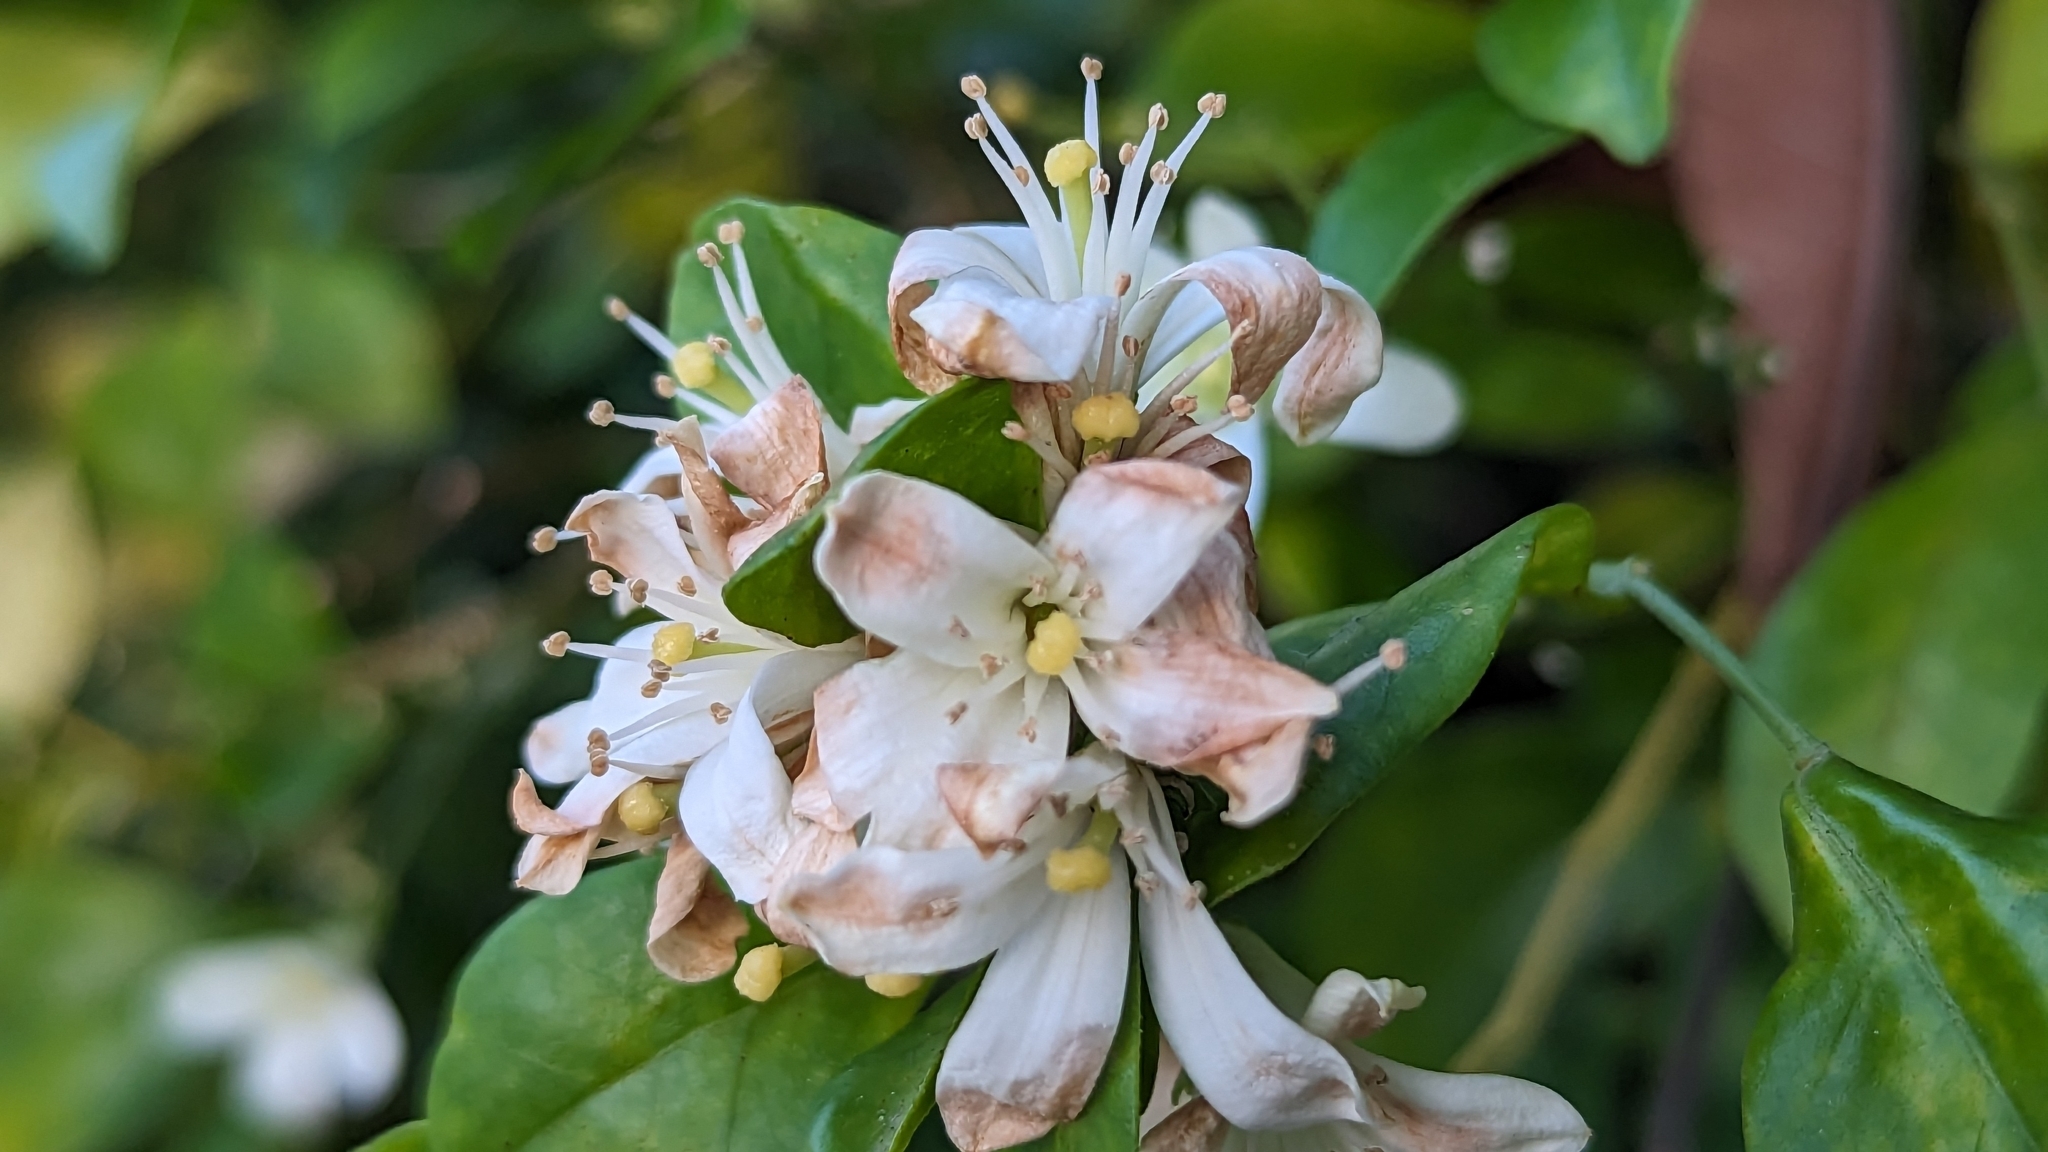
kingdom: Plantae
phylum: Tracheophyta
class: Magnoliopsida
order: Sapindales
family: Rutaceae
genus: Murraya
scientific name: Murraya paniculata
